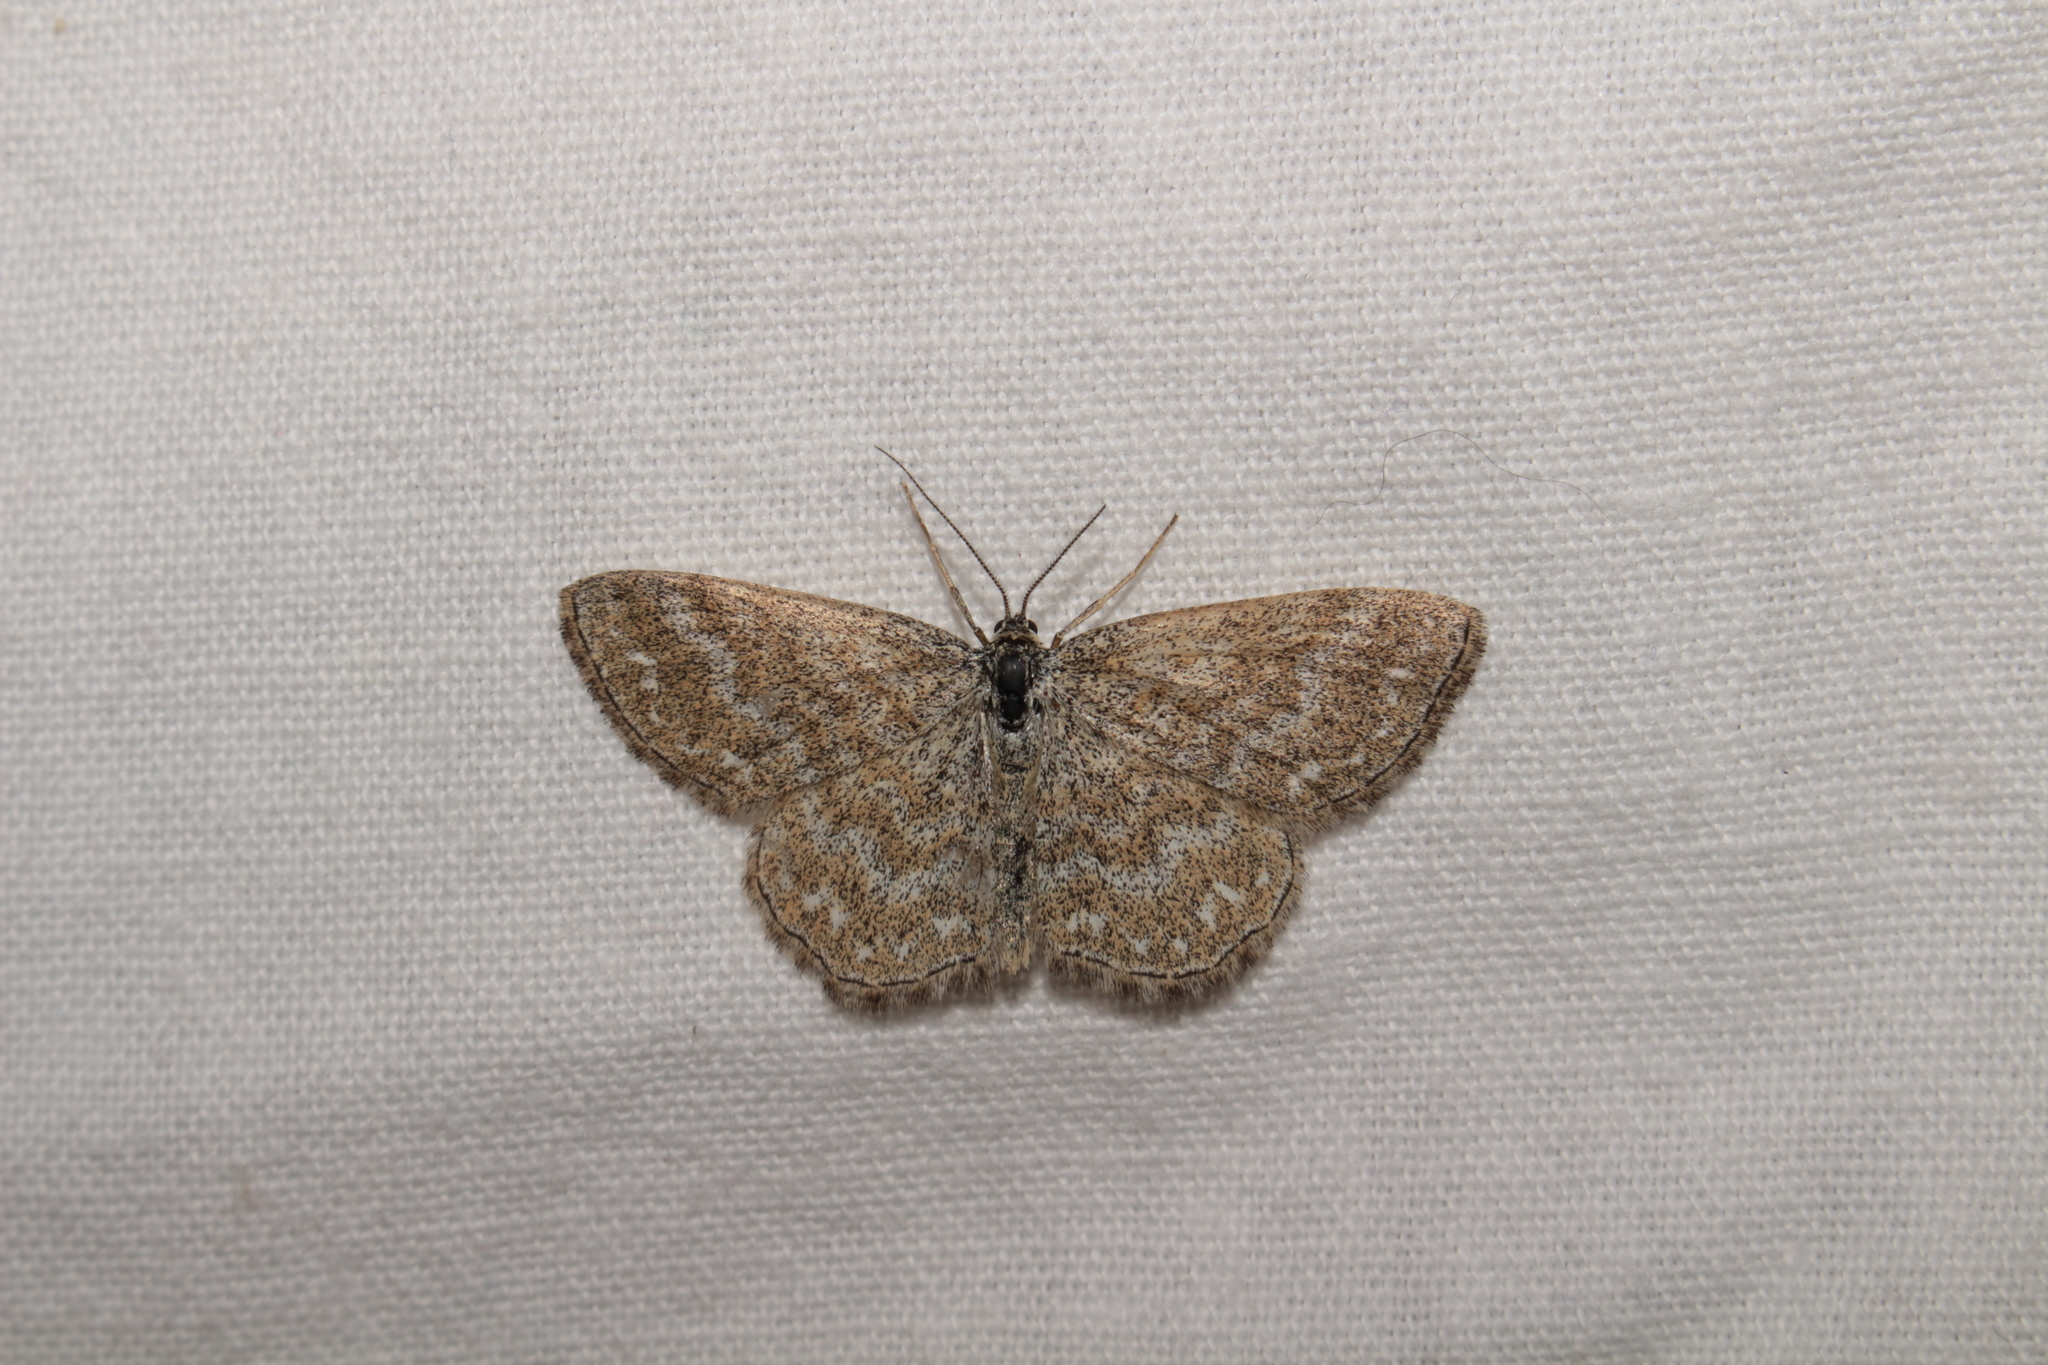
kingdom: Animalia
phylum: Arthropoda
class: Insecta
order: Lepidoptera
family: Geometridae
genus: Scopula
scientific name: Scopula immorata
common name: Lewes wave
